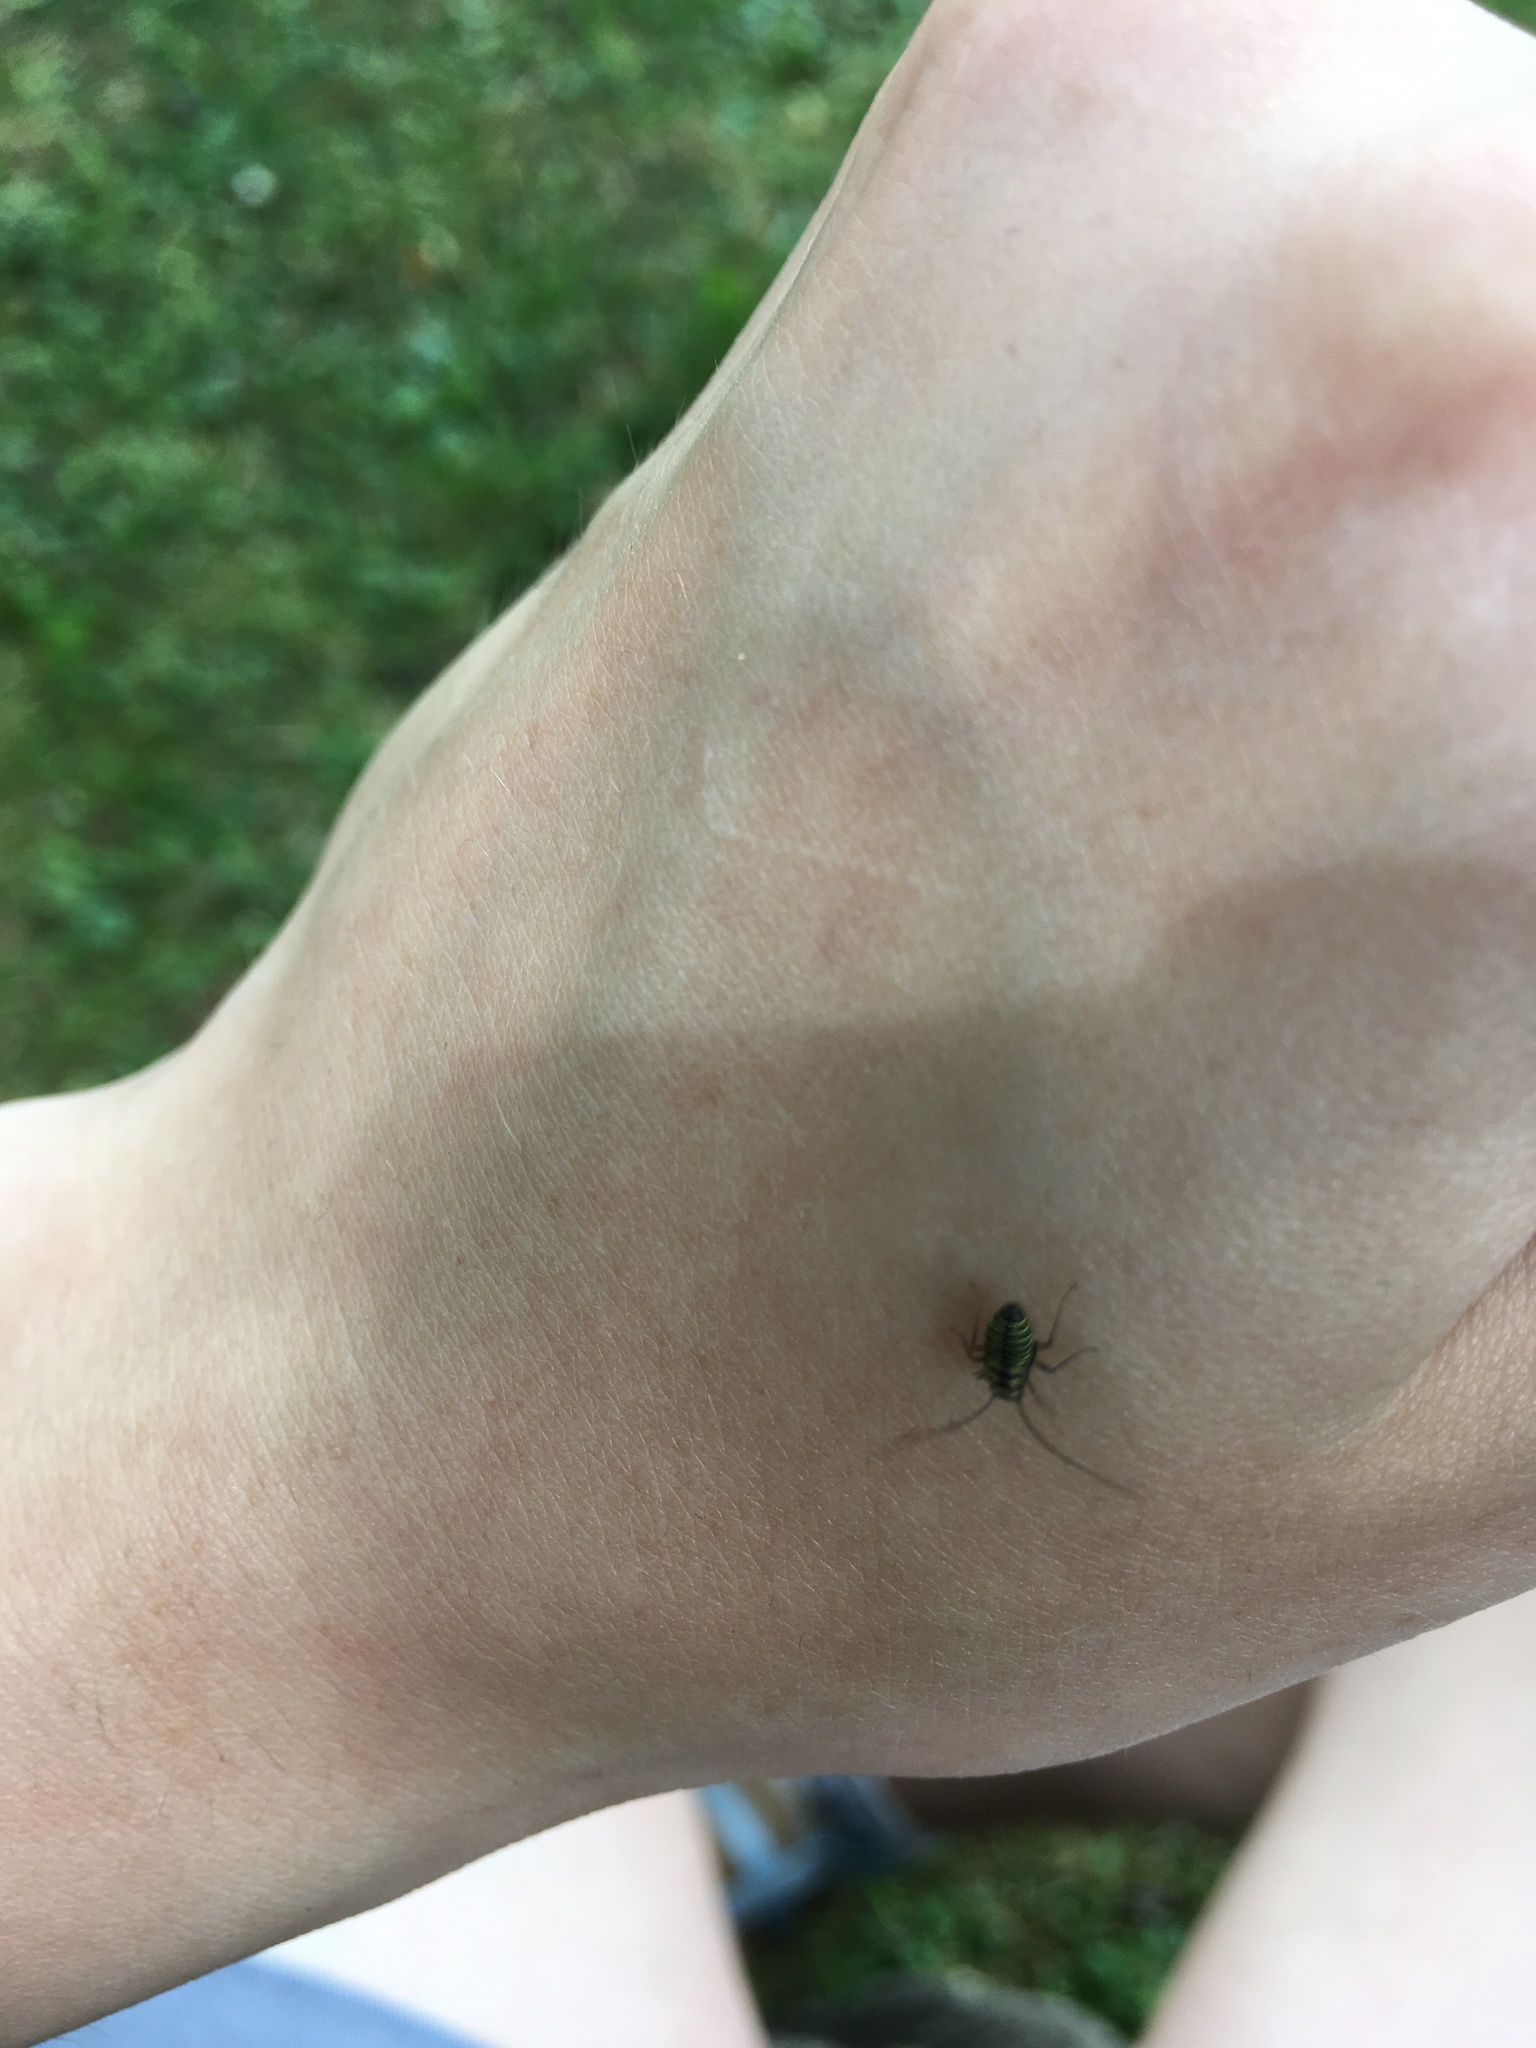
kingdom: Animalia
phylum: Arthropoda
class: Insecta
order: Psocodea
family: Psocidae
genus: Cerastipsocus
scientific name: Cerastipsocus venosus
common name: Tree cattle
